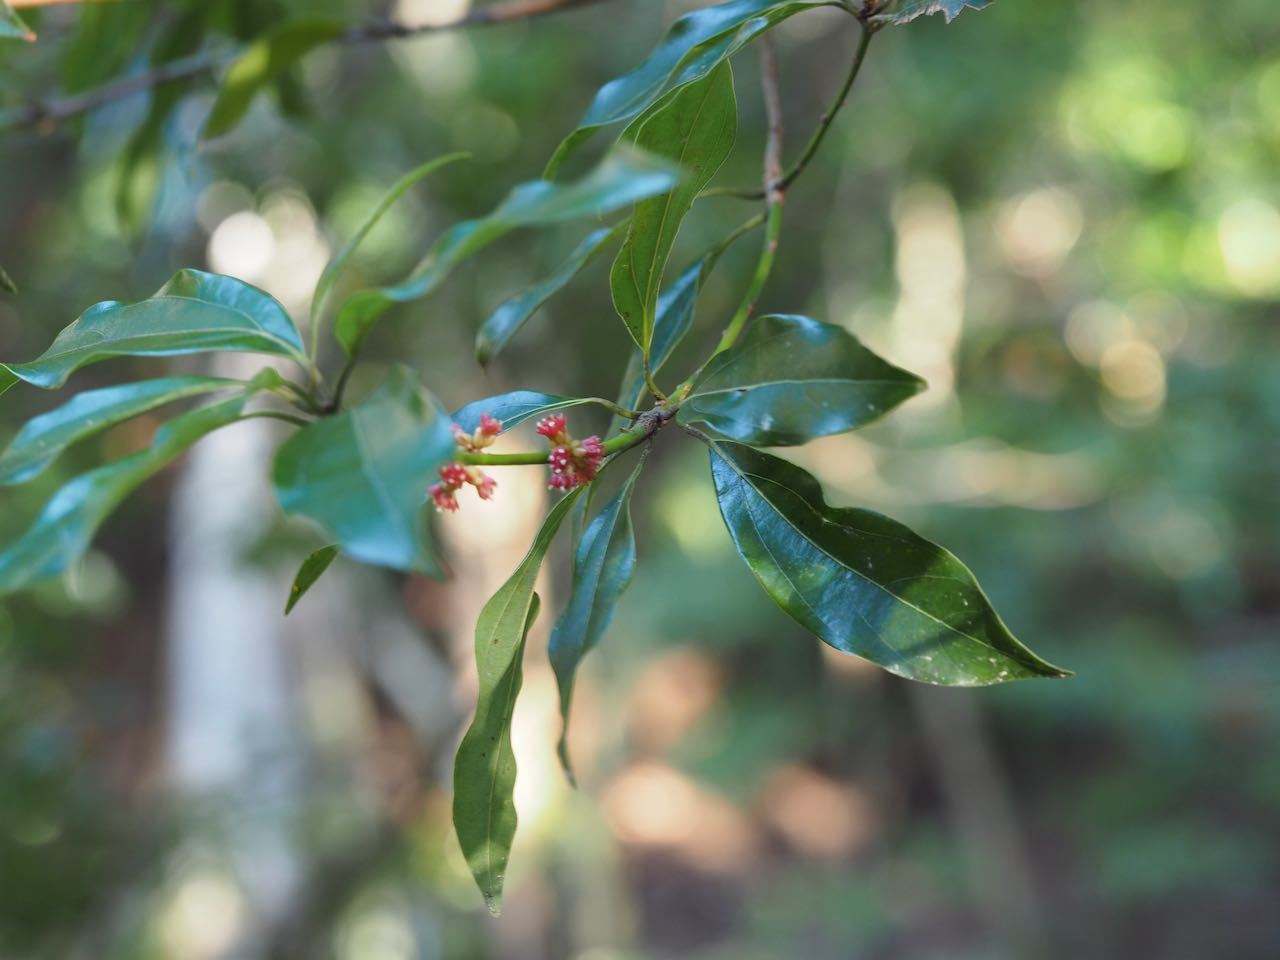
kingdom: Plantae
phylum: Tracheophyta
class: Magnoliopsida
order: Laurales
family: Lauraceae
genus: Neolitsea
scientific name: Neolitsea aciculata
